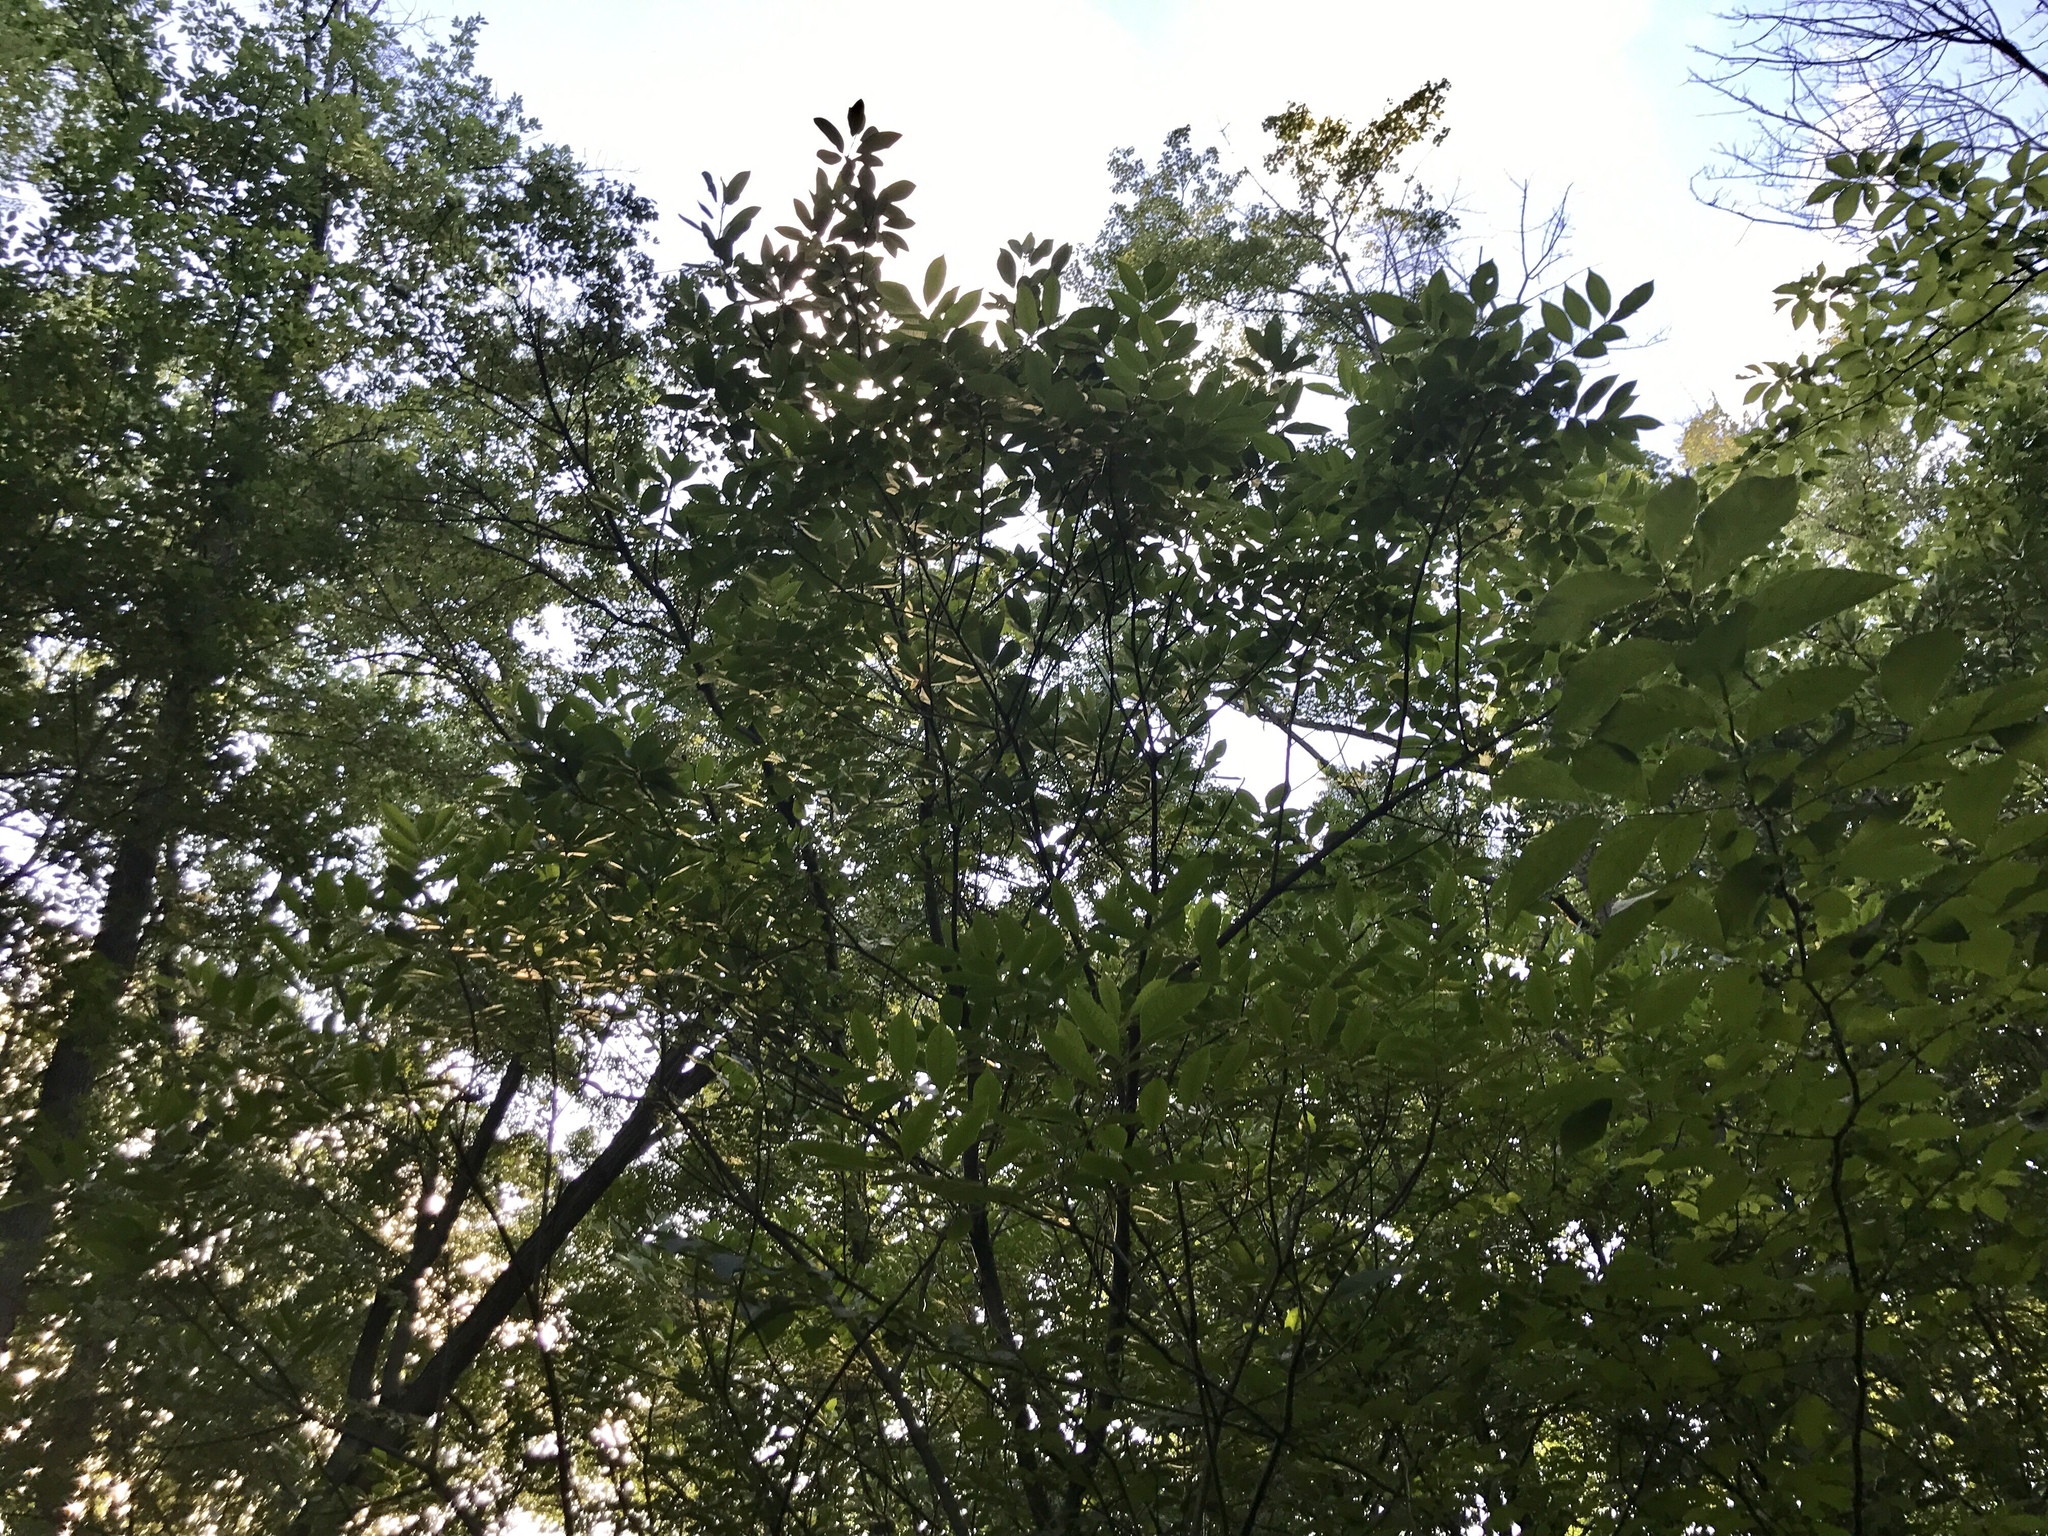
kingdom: Plantae
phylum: Tracheophyta
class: Magnoliopsida
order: Sapindales
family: Anacardiaceae
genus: Toxicodendron
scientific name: Toxicodendron vernix
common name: Poison sumac
